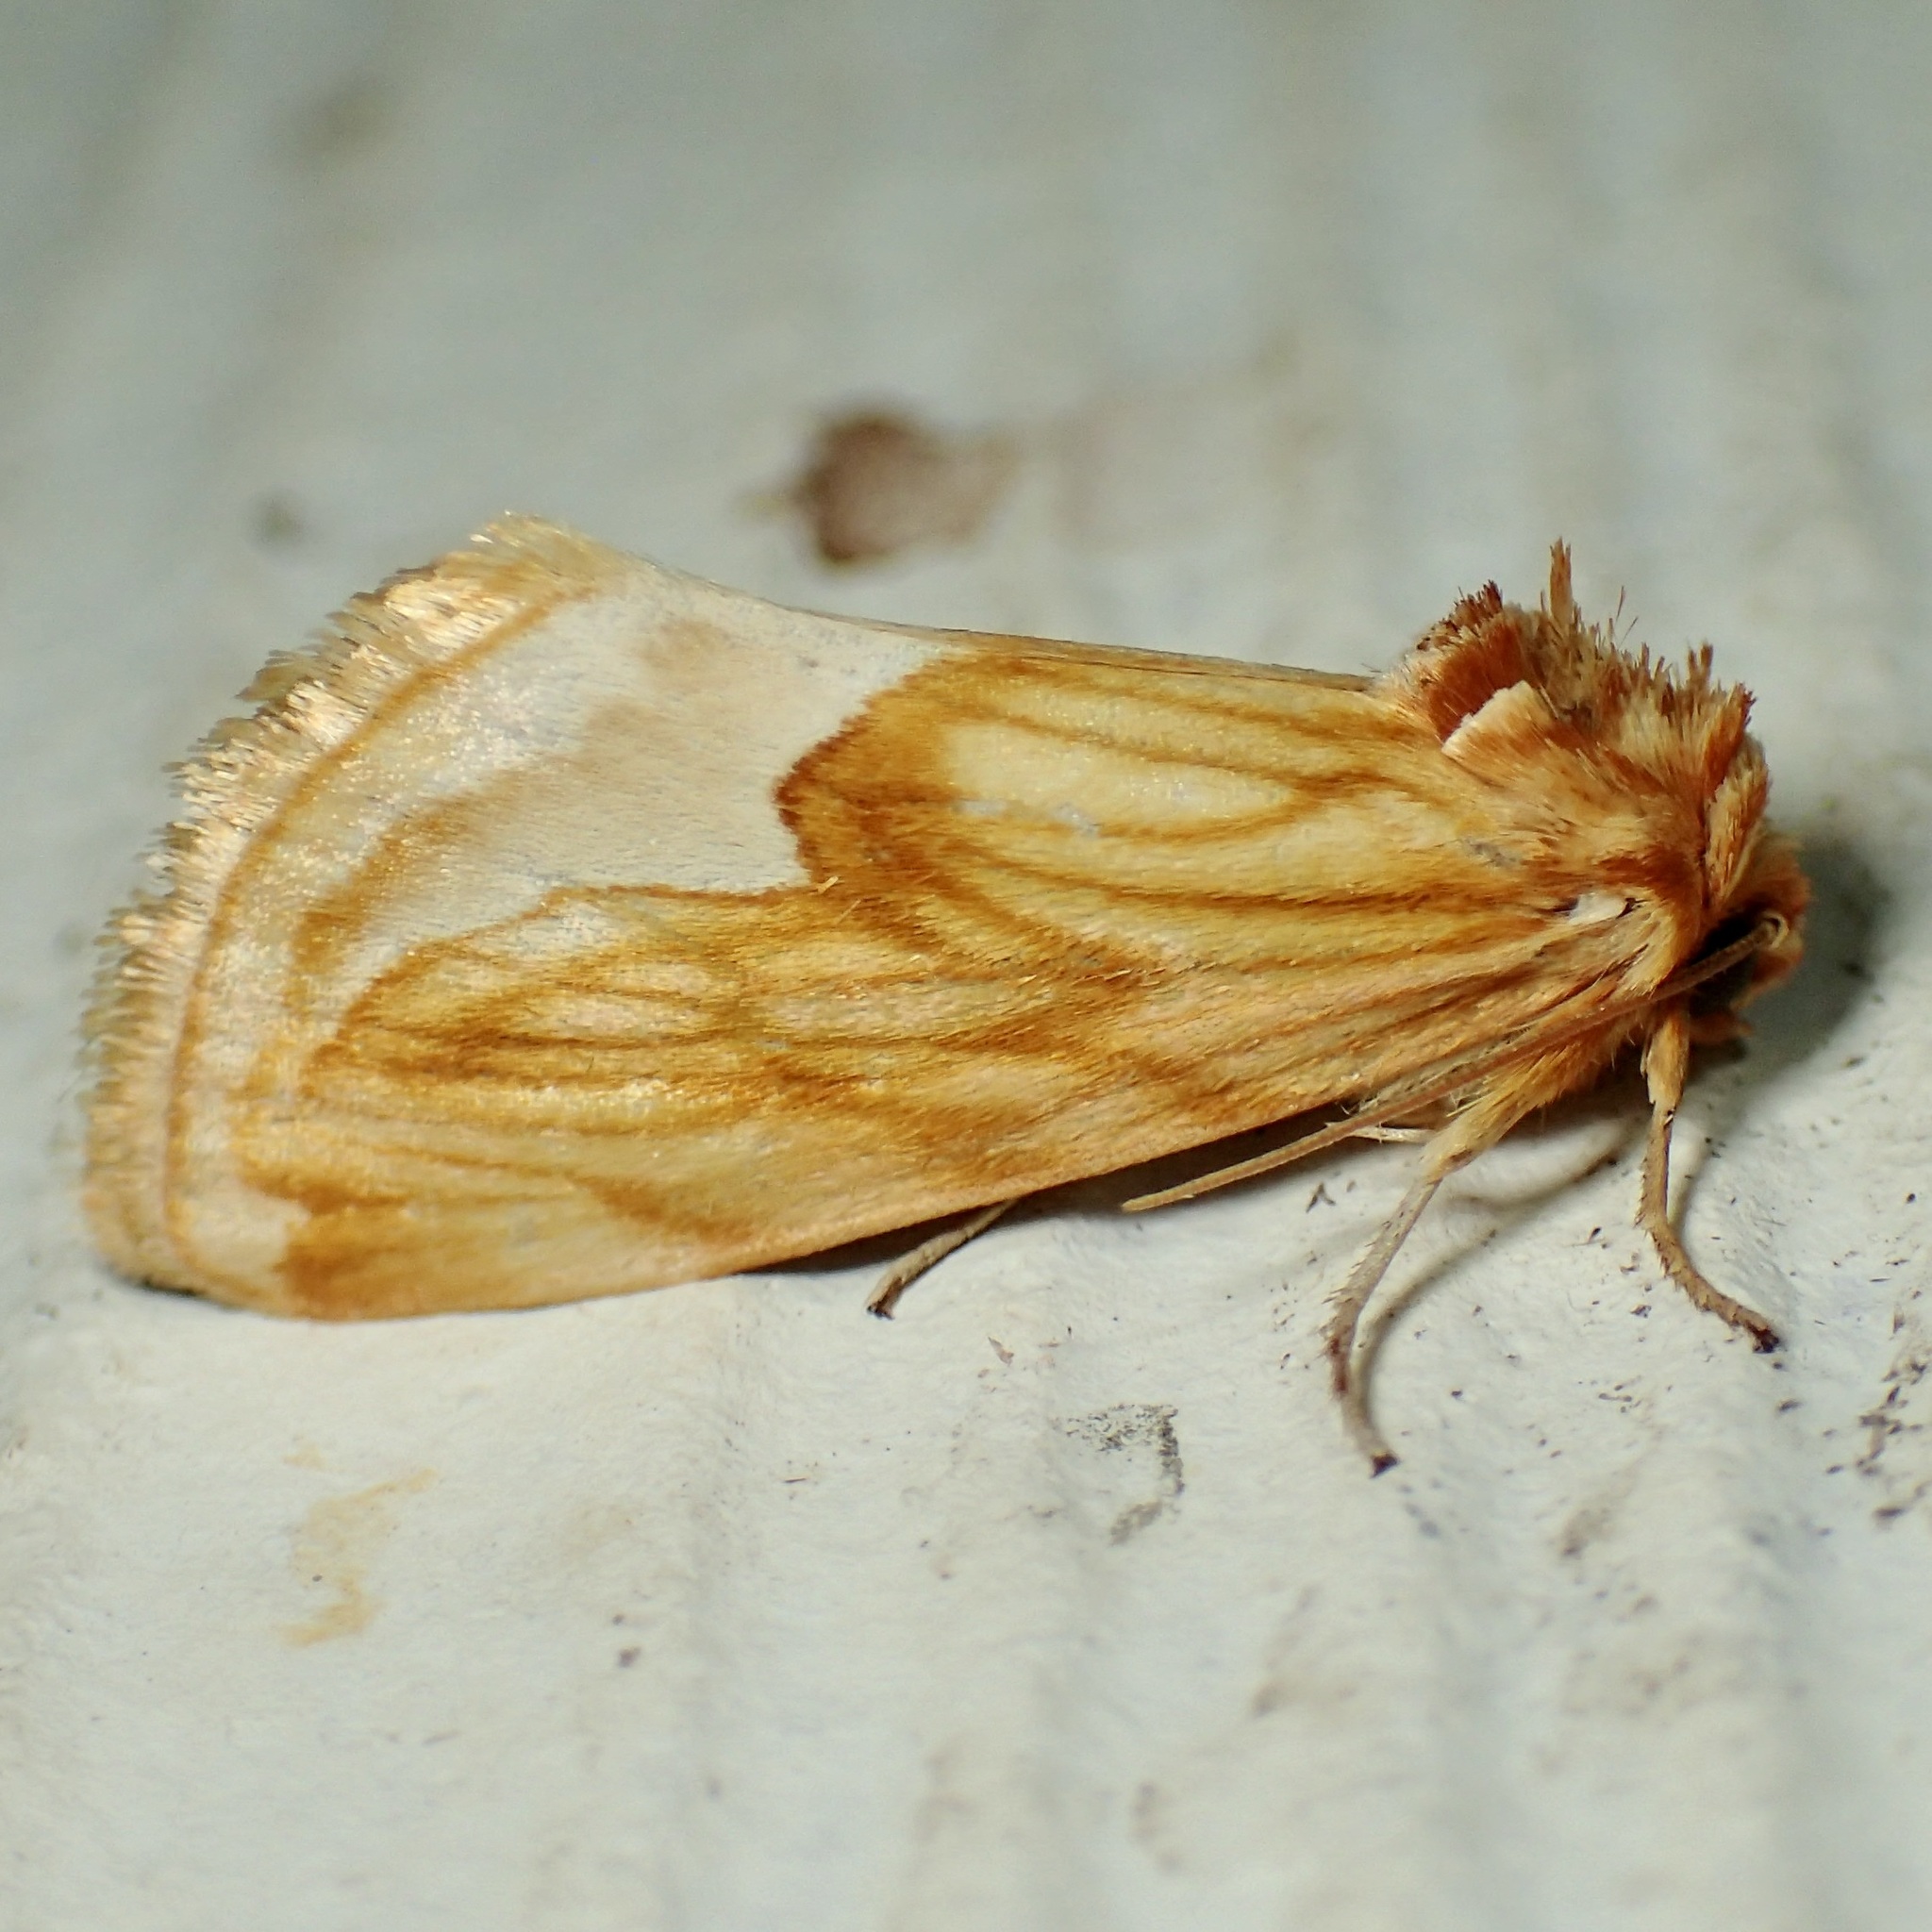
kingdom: Animalia
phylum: Arthropoda
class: Insecta
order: Lepidoptera
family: Noctuidae
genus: Cirrhophanus
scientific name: Cirrhophanus dyari
